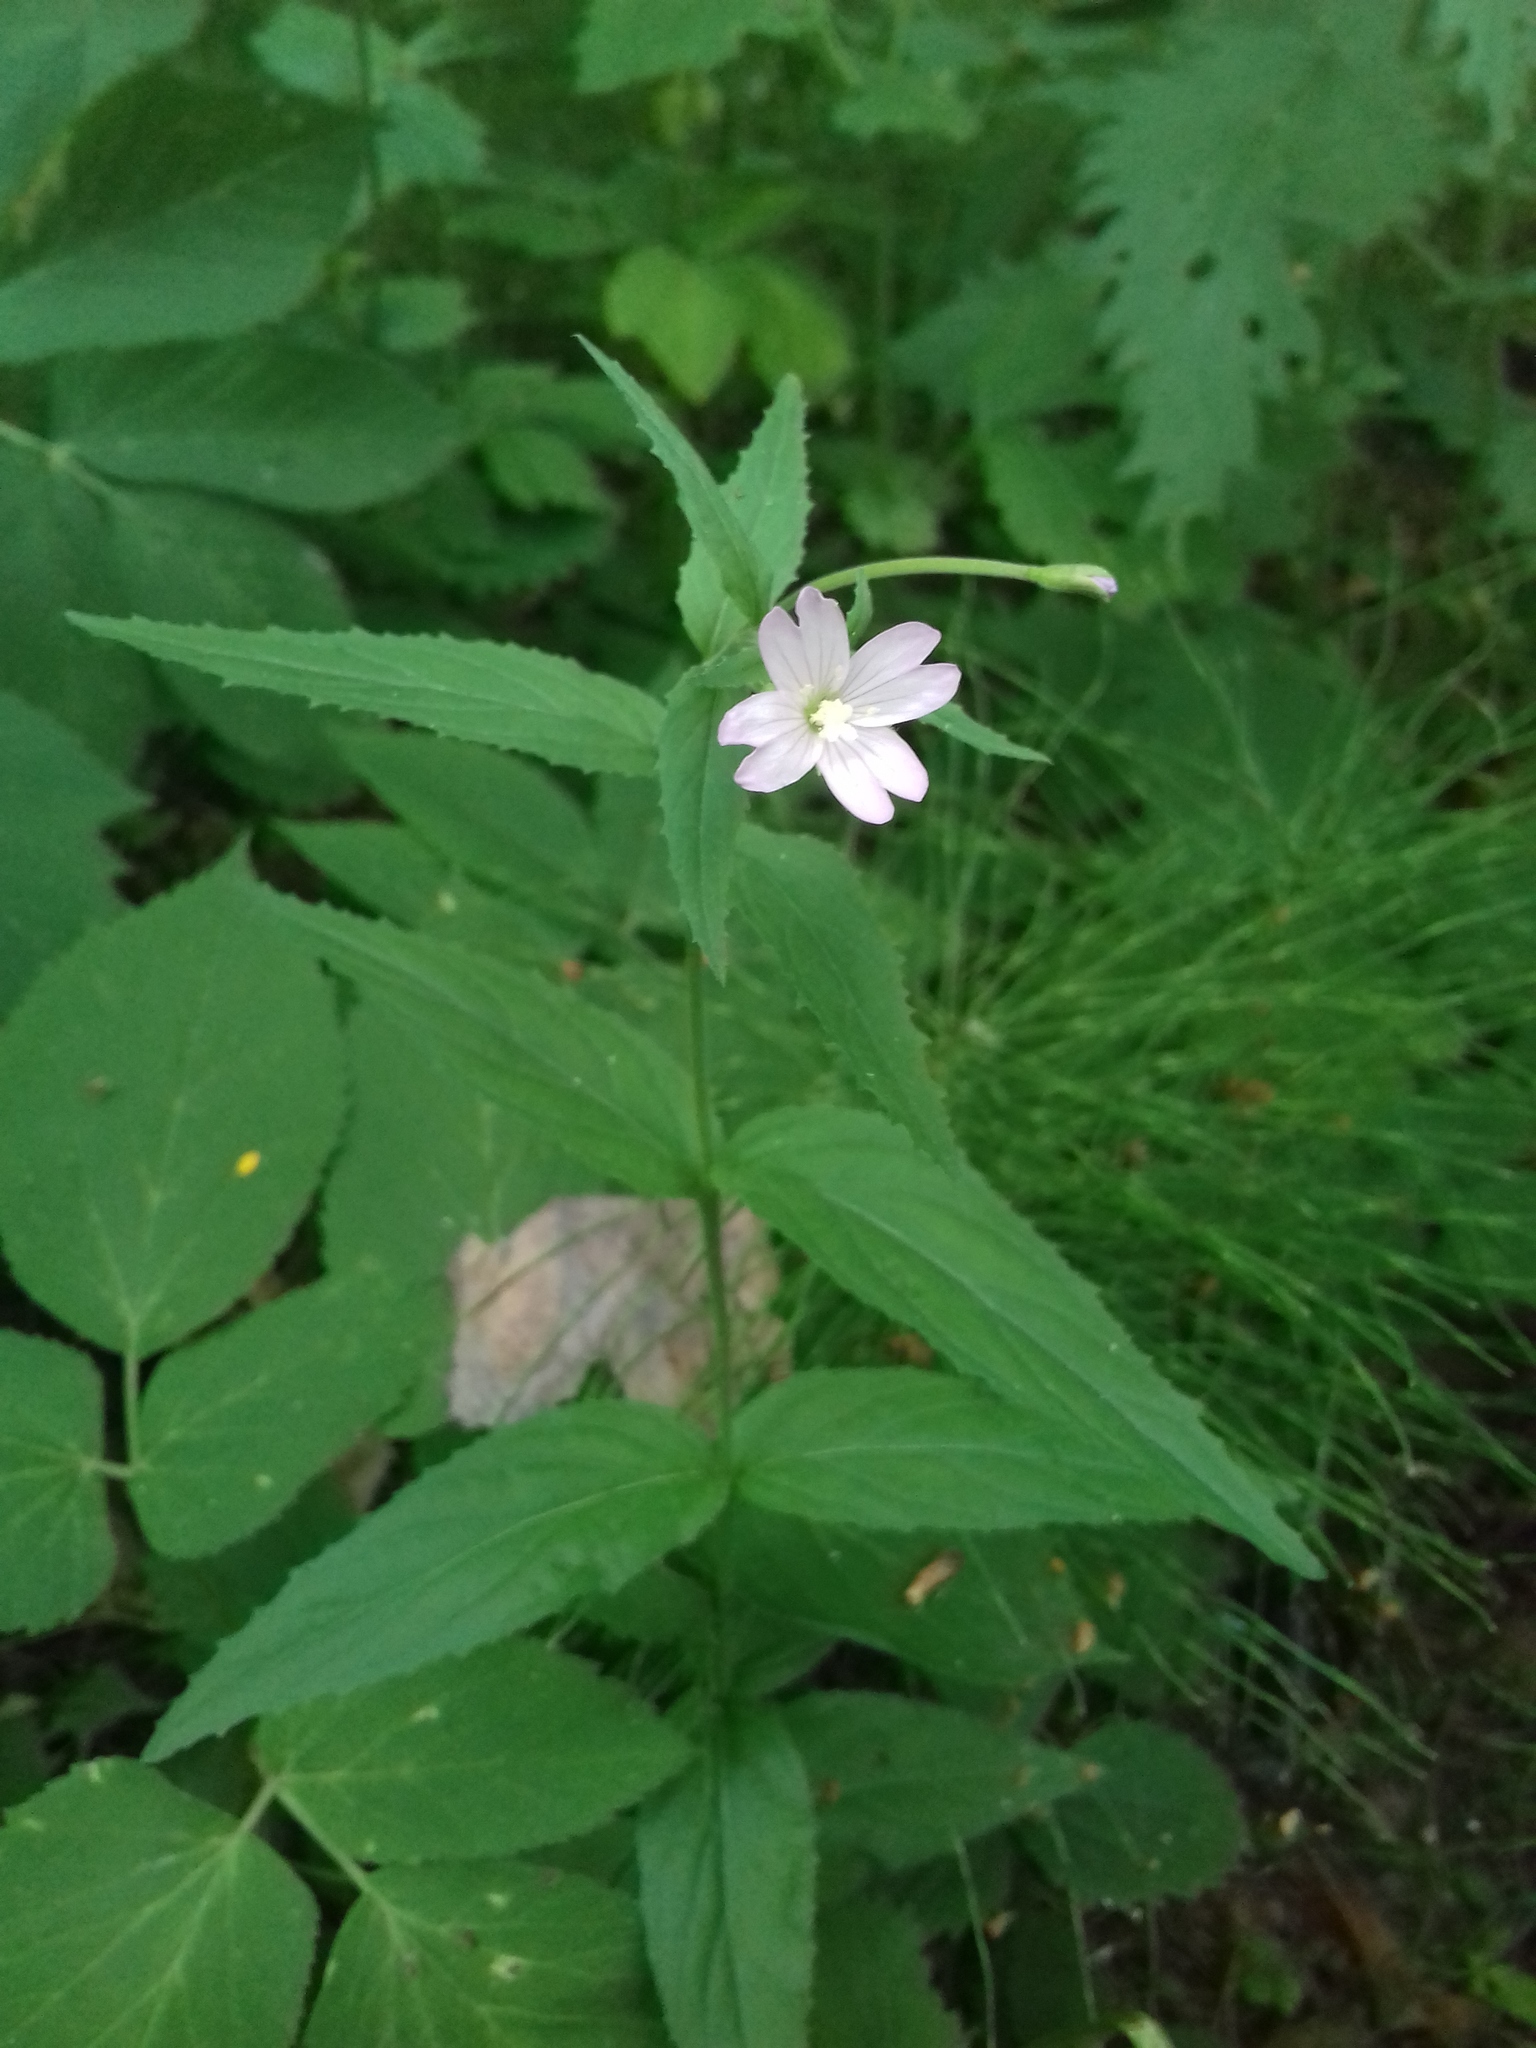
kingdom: Plantae
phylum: Tracheophyta
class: Magnoliopsida
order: Myrtales
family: Onagraceae
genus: Epilobium
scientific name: Epilobium montanum
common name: Broad-leaved willowherb
